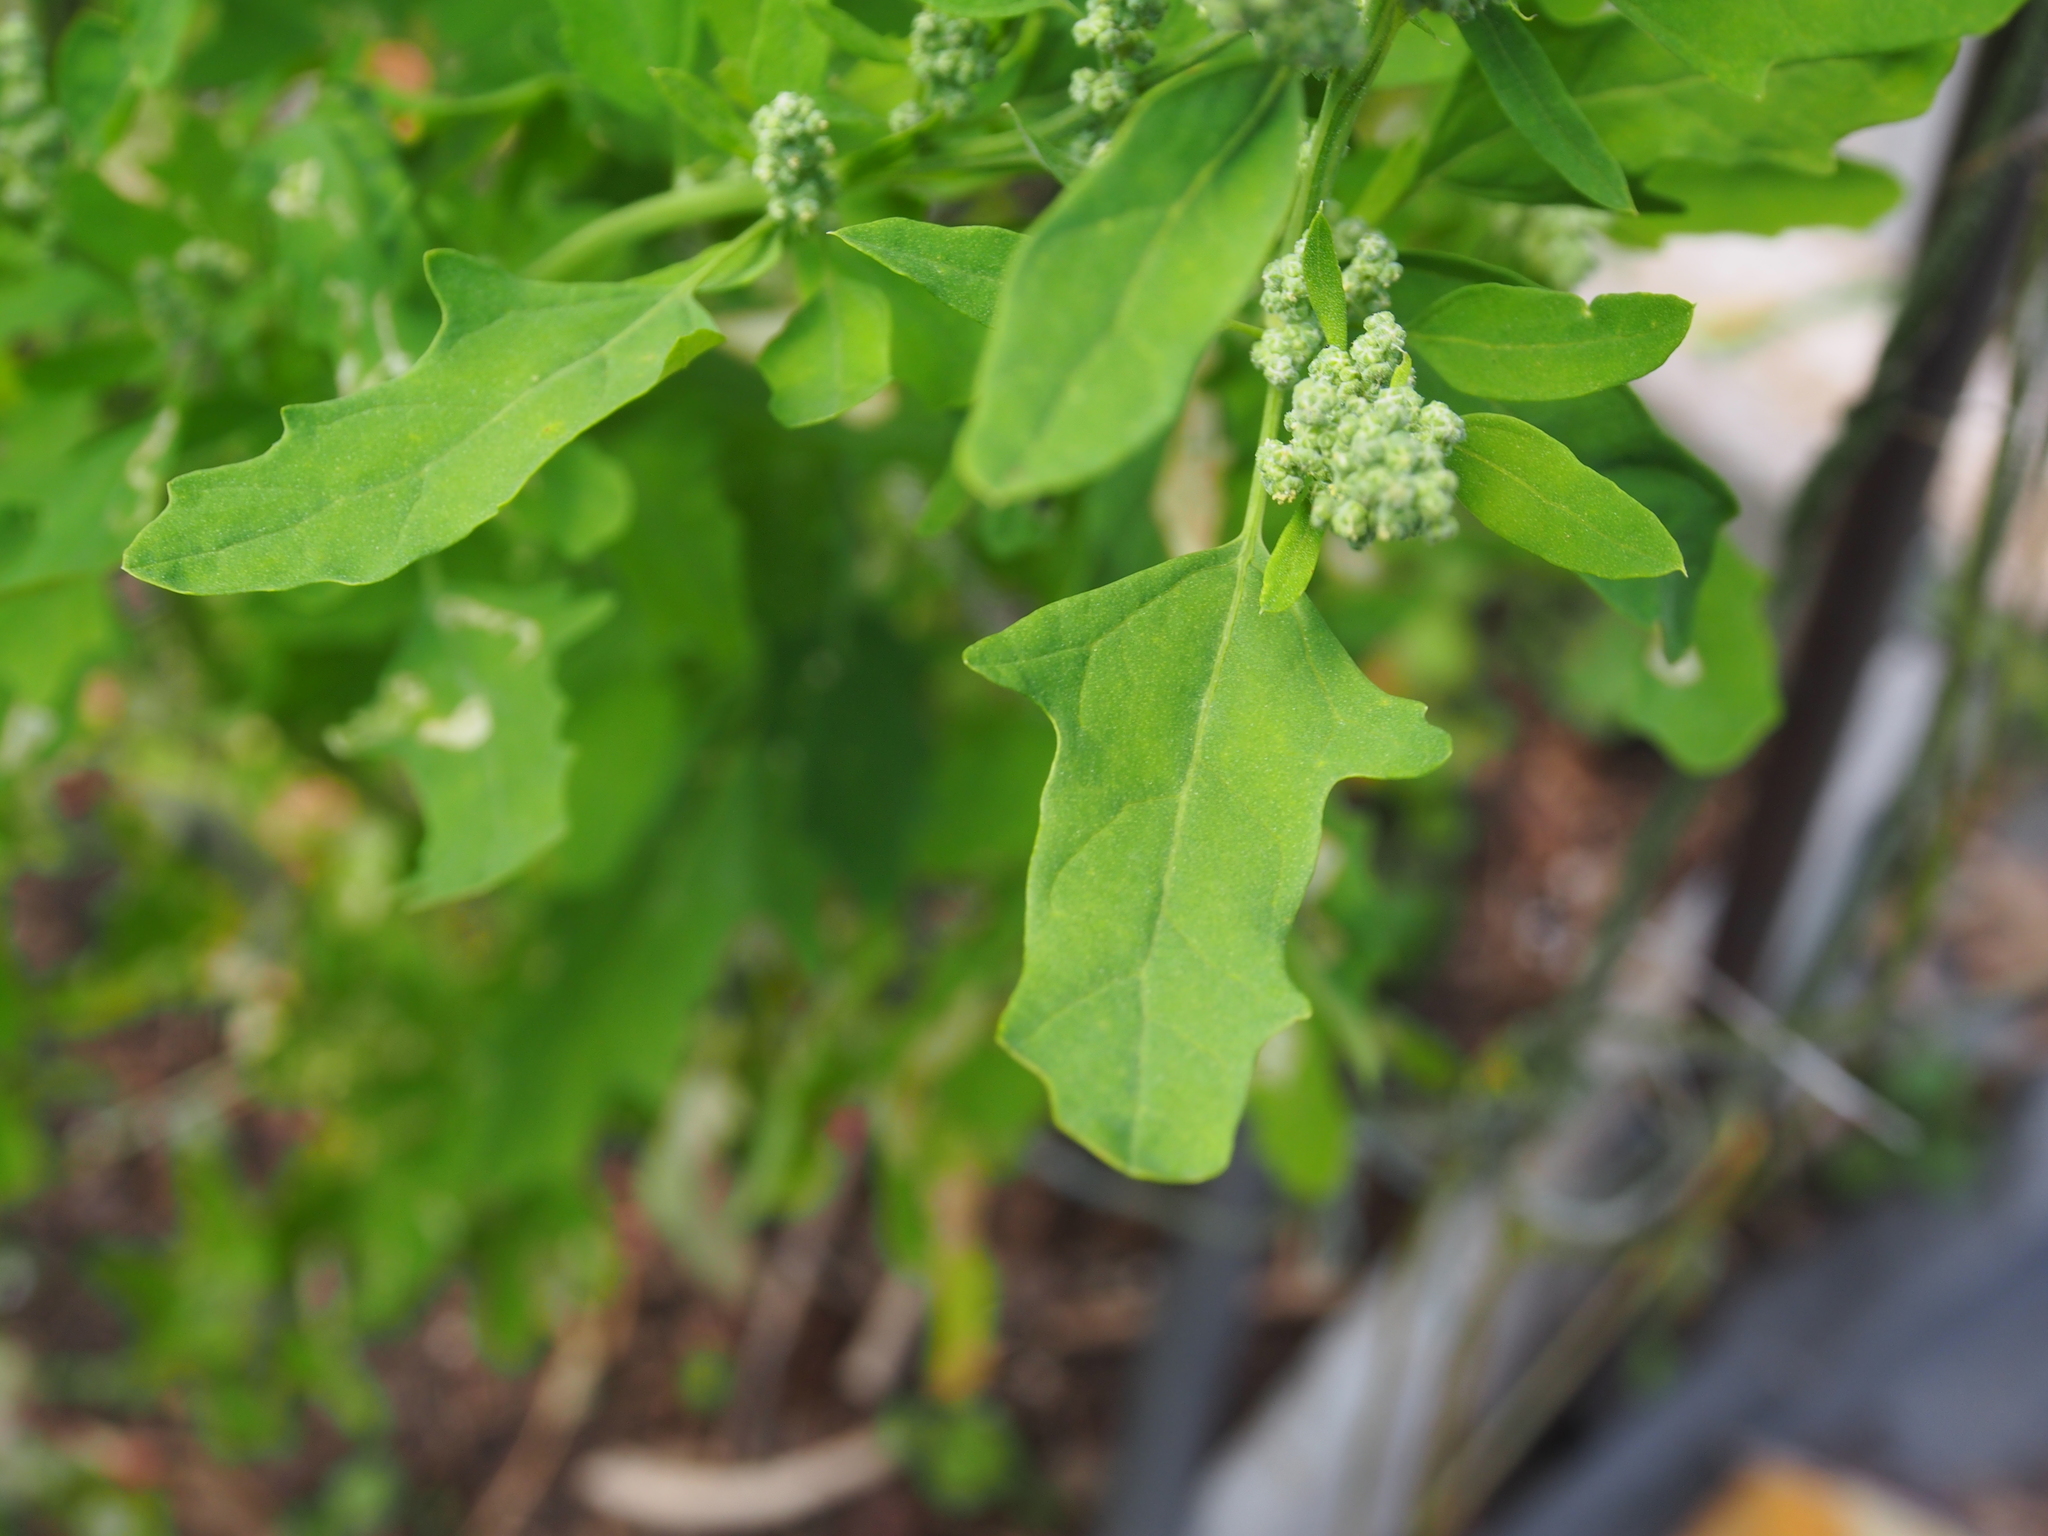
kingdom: Plantae
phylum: Tracheophyta
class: Magnoliopsida
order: Caryophyllales
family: Amaranthaceae
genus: Chenopodium
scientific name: Chenopodium ficifolium
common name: Fig-leaved goosefoot
